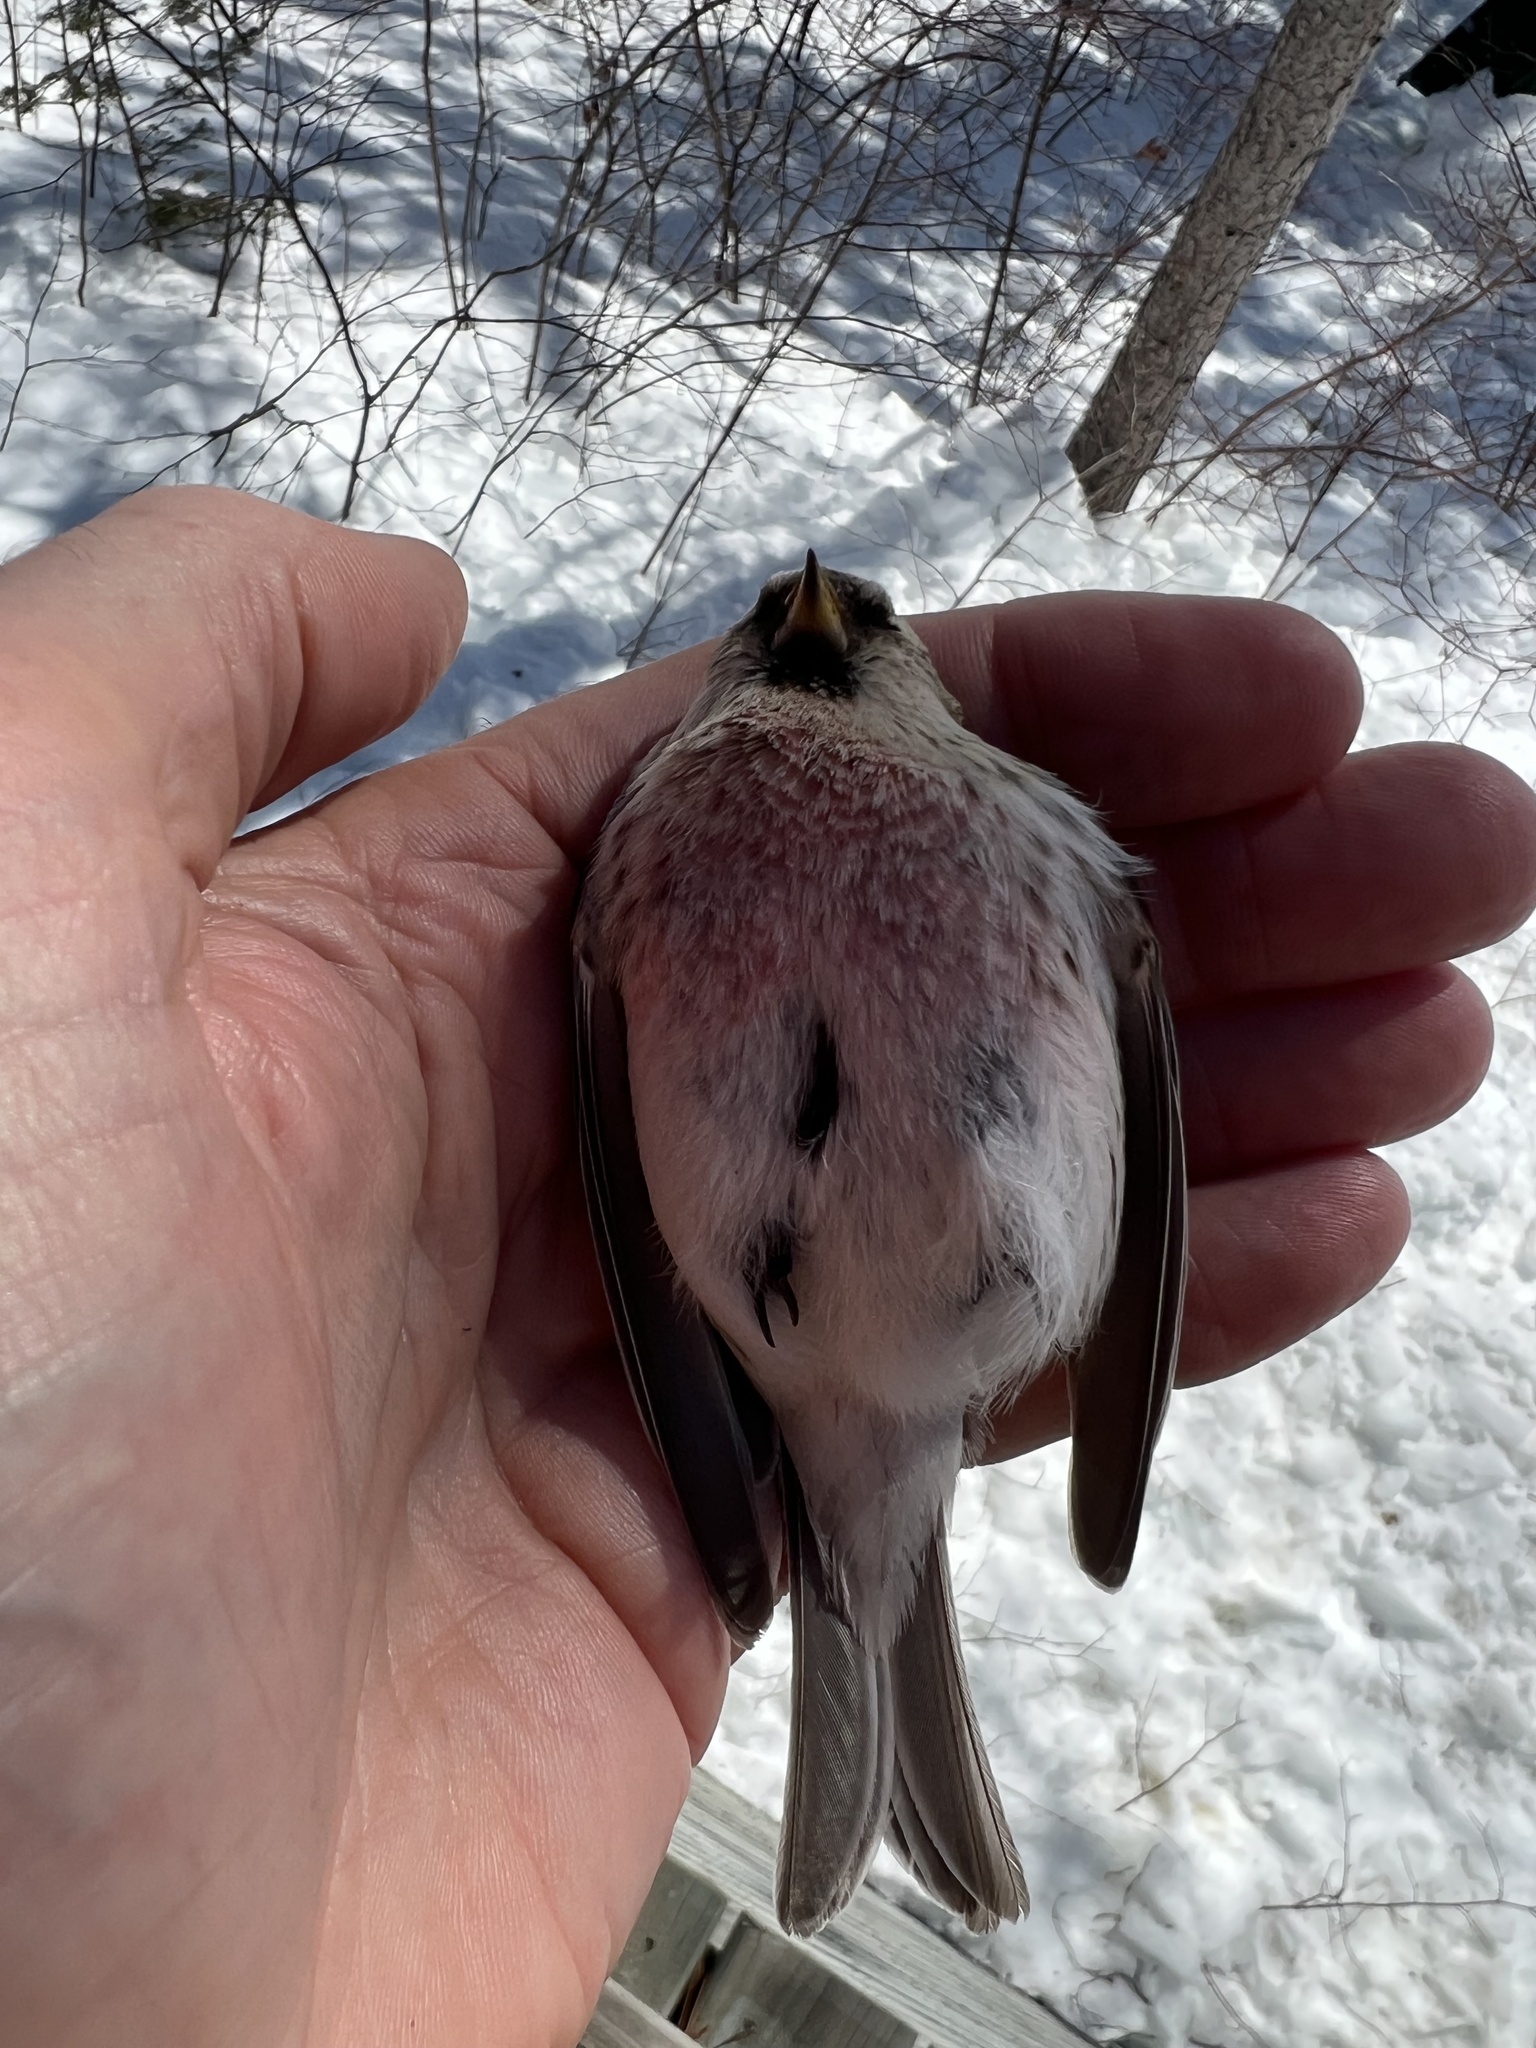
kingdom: Animalia
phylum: Chordata
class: Aves
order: Passeriformes
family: Fringillidae
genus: Acanthis
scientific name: Acanthis flammea
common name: Common redpoll
